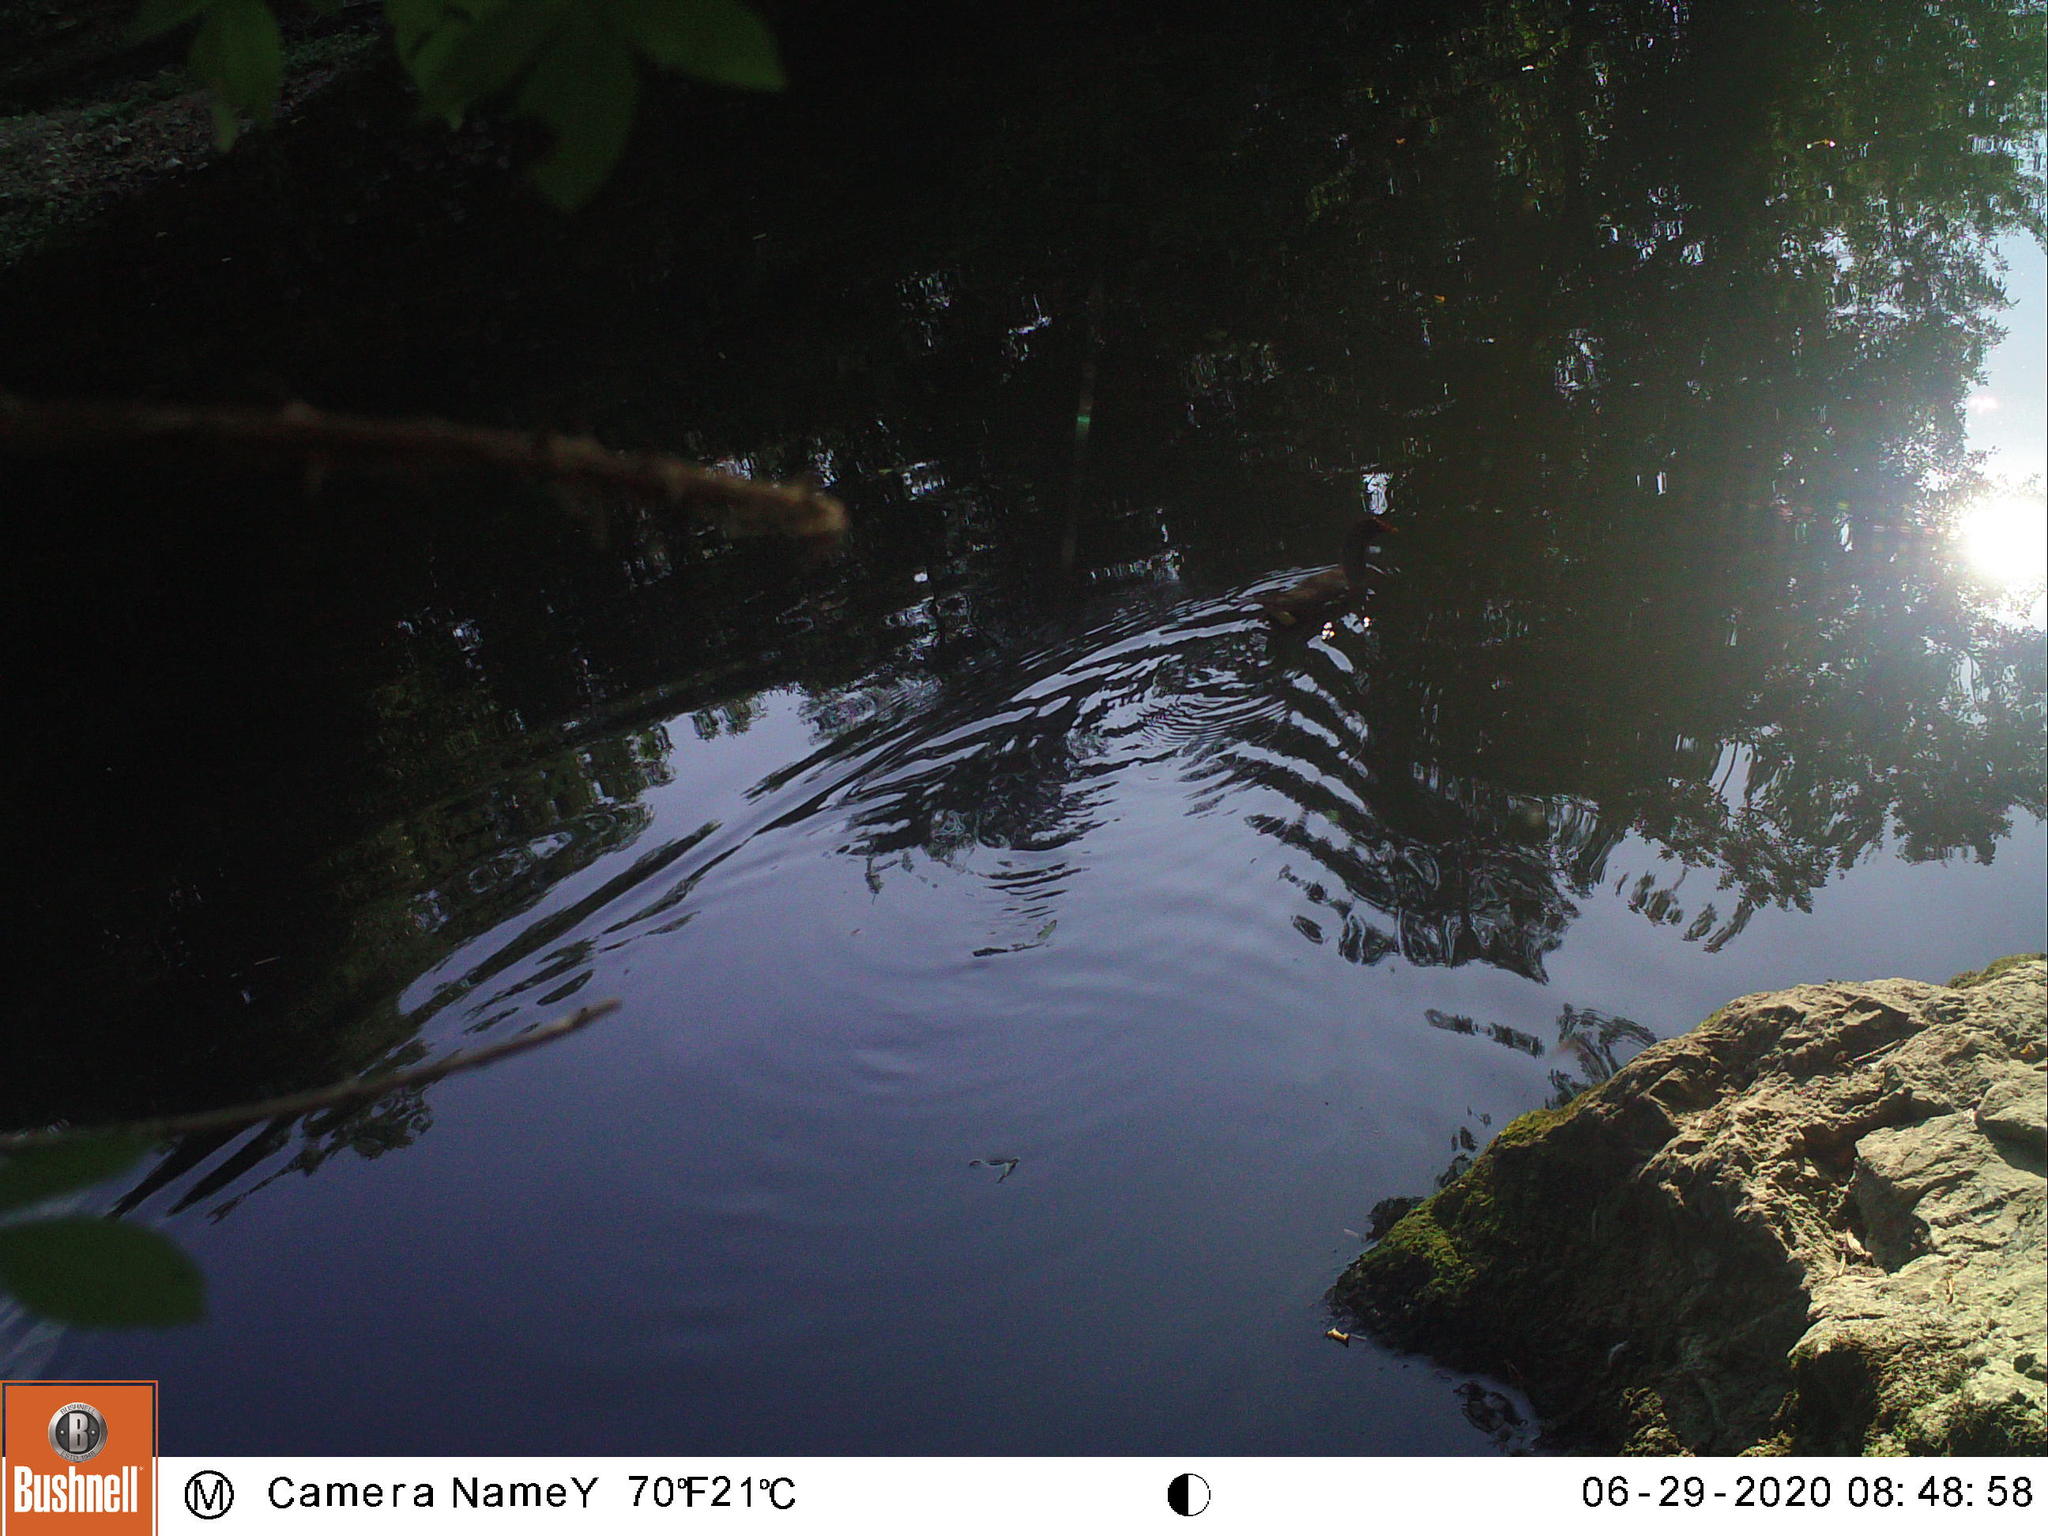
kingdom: Animalia
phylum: Chordata
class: Aves
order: Gruiformes
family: Rallidae
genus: Gallinula
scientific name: Gallinula chloropus
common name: Common moorhen
